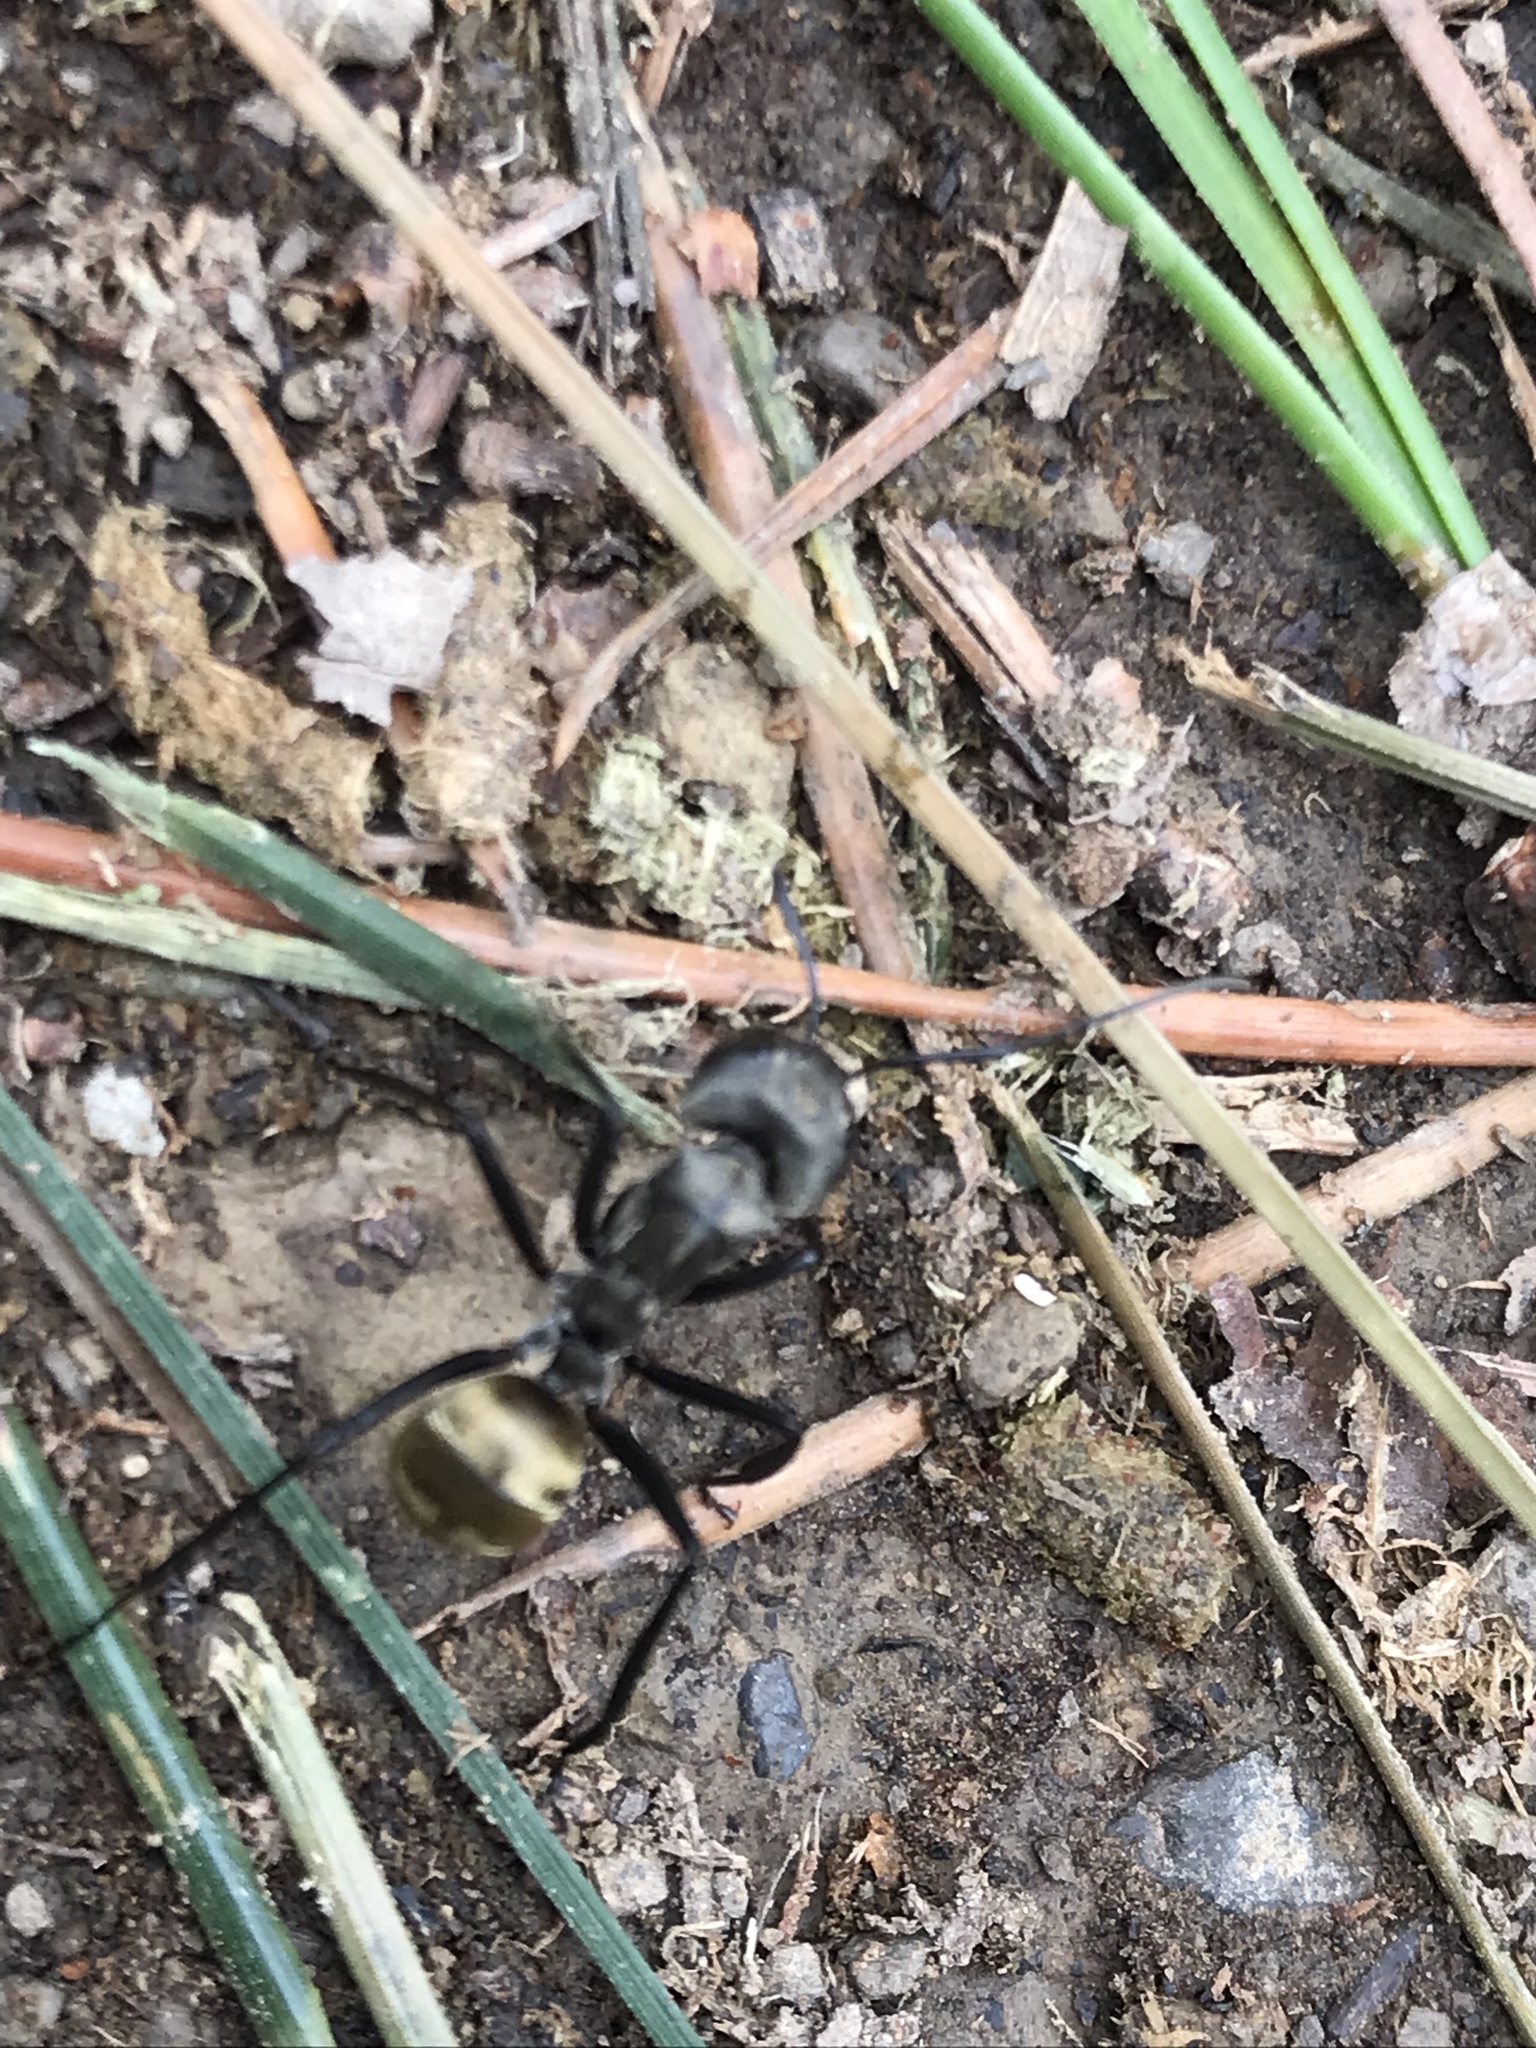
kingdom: Animalia
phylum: Arthropoda
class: Insecta
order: Hymenoptera
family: Formicidae
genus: Camponotus
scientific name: Camponotus sericeiventris
